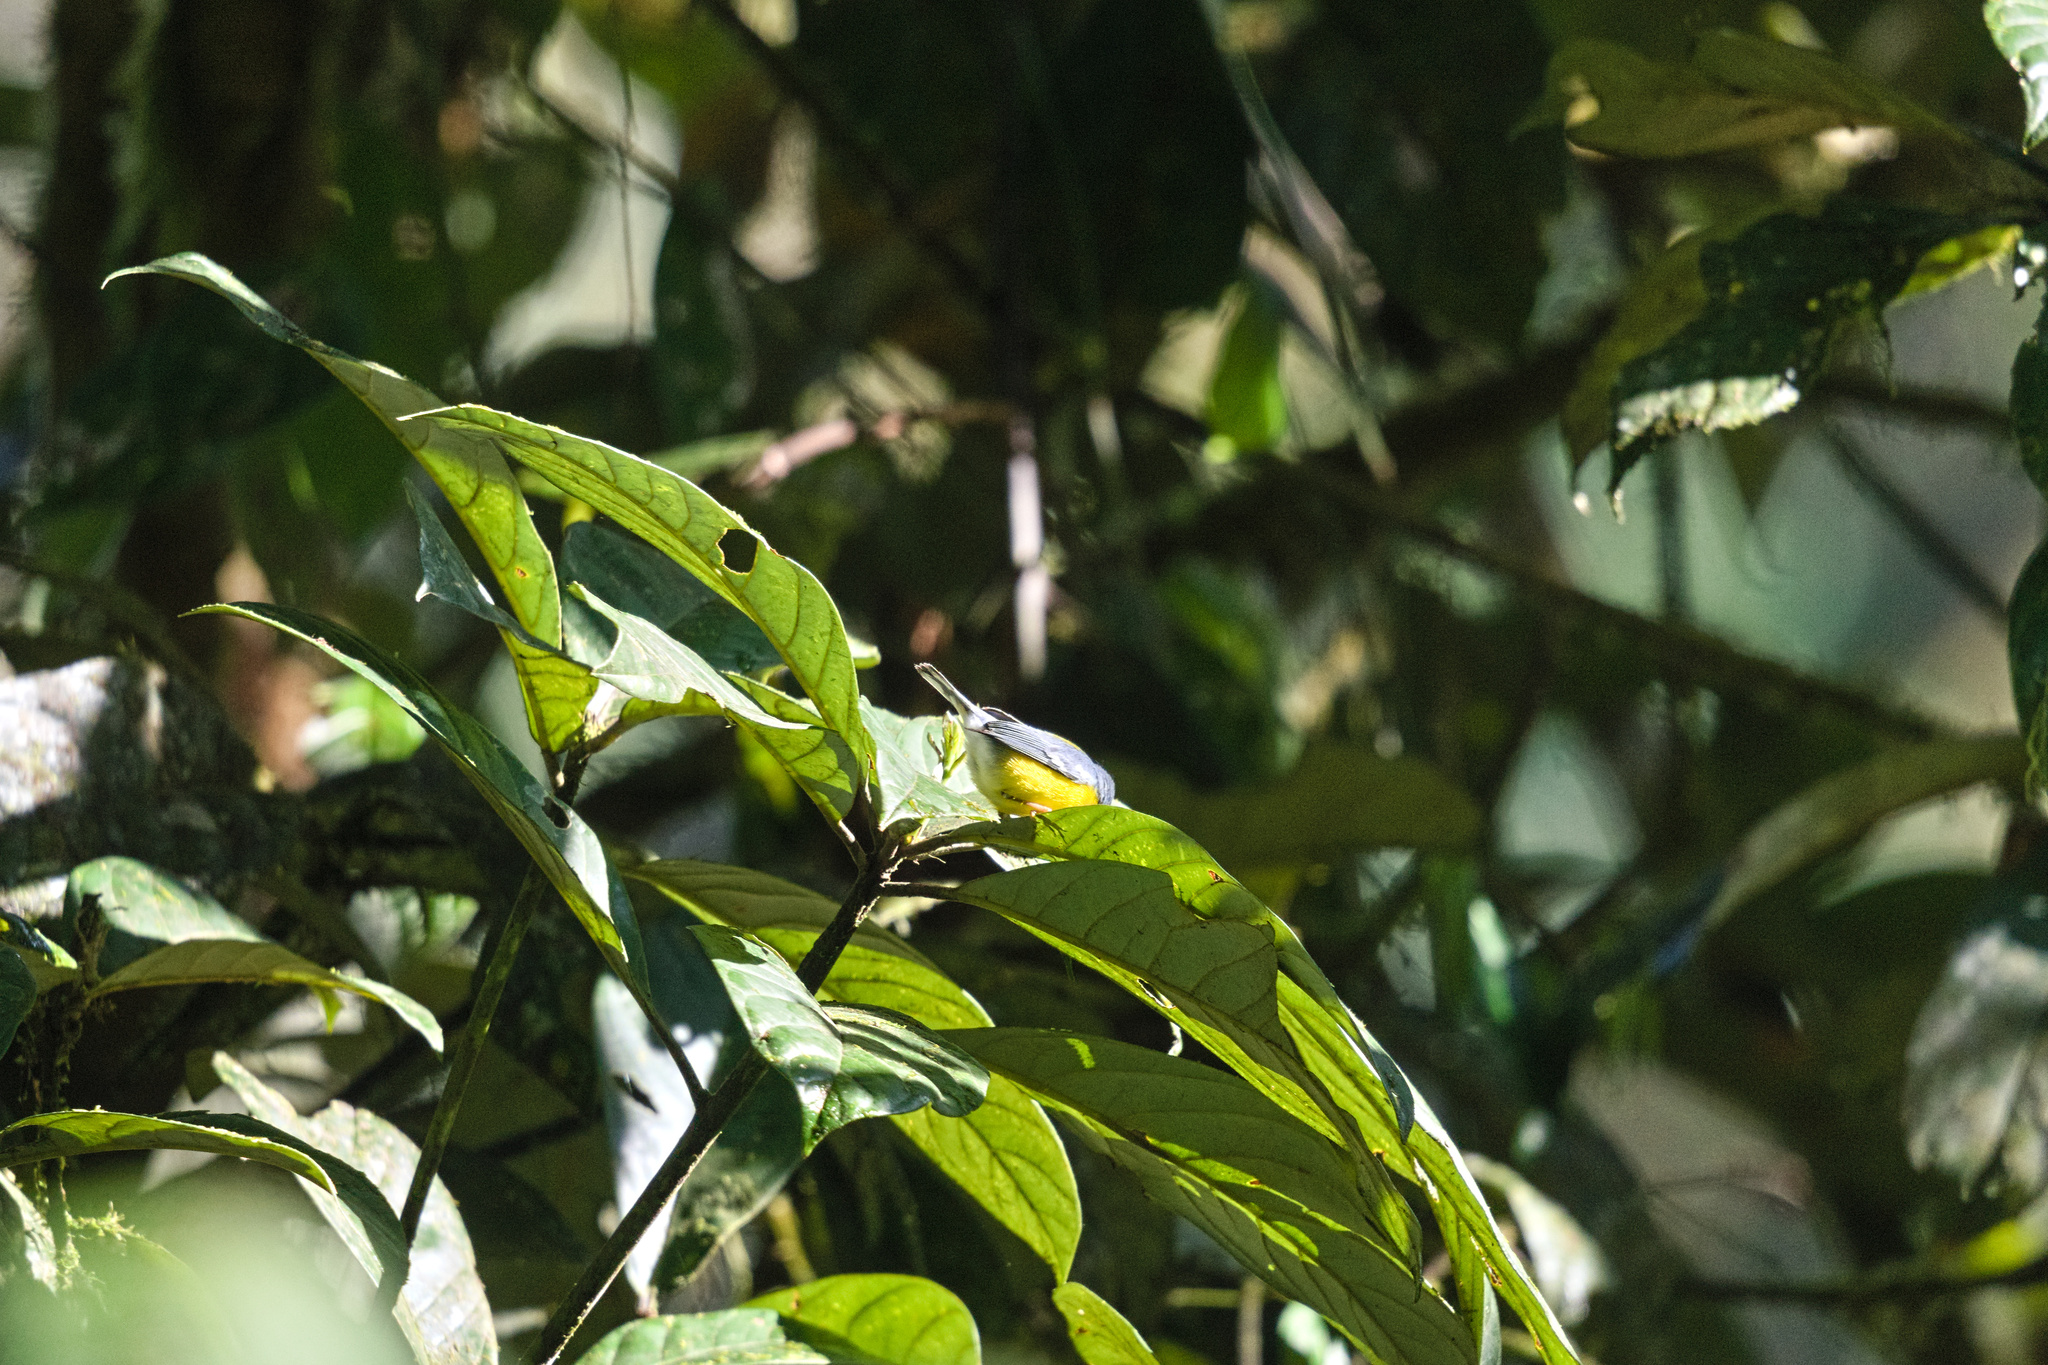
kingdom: Animalia
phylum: Chordata
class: Aves
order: Passeriformes
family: Parulidae
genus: Setophaga
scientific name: Setophaga pitiayumi
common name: Tropical parula
